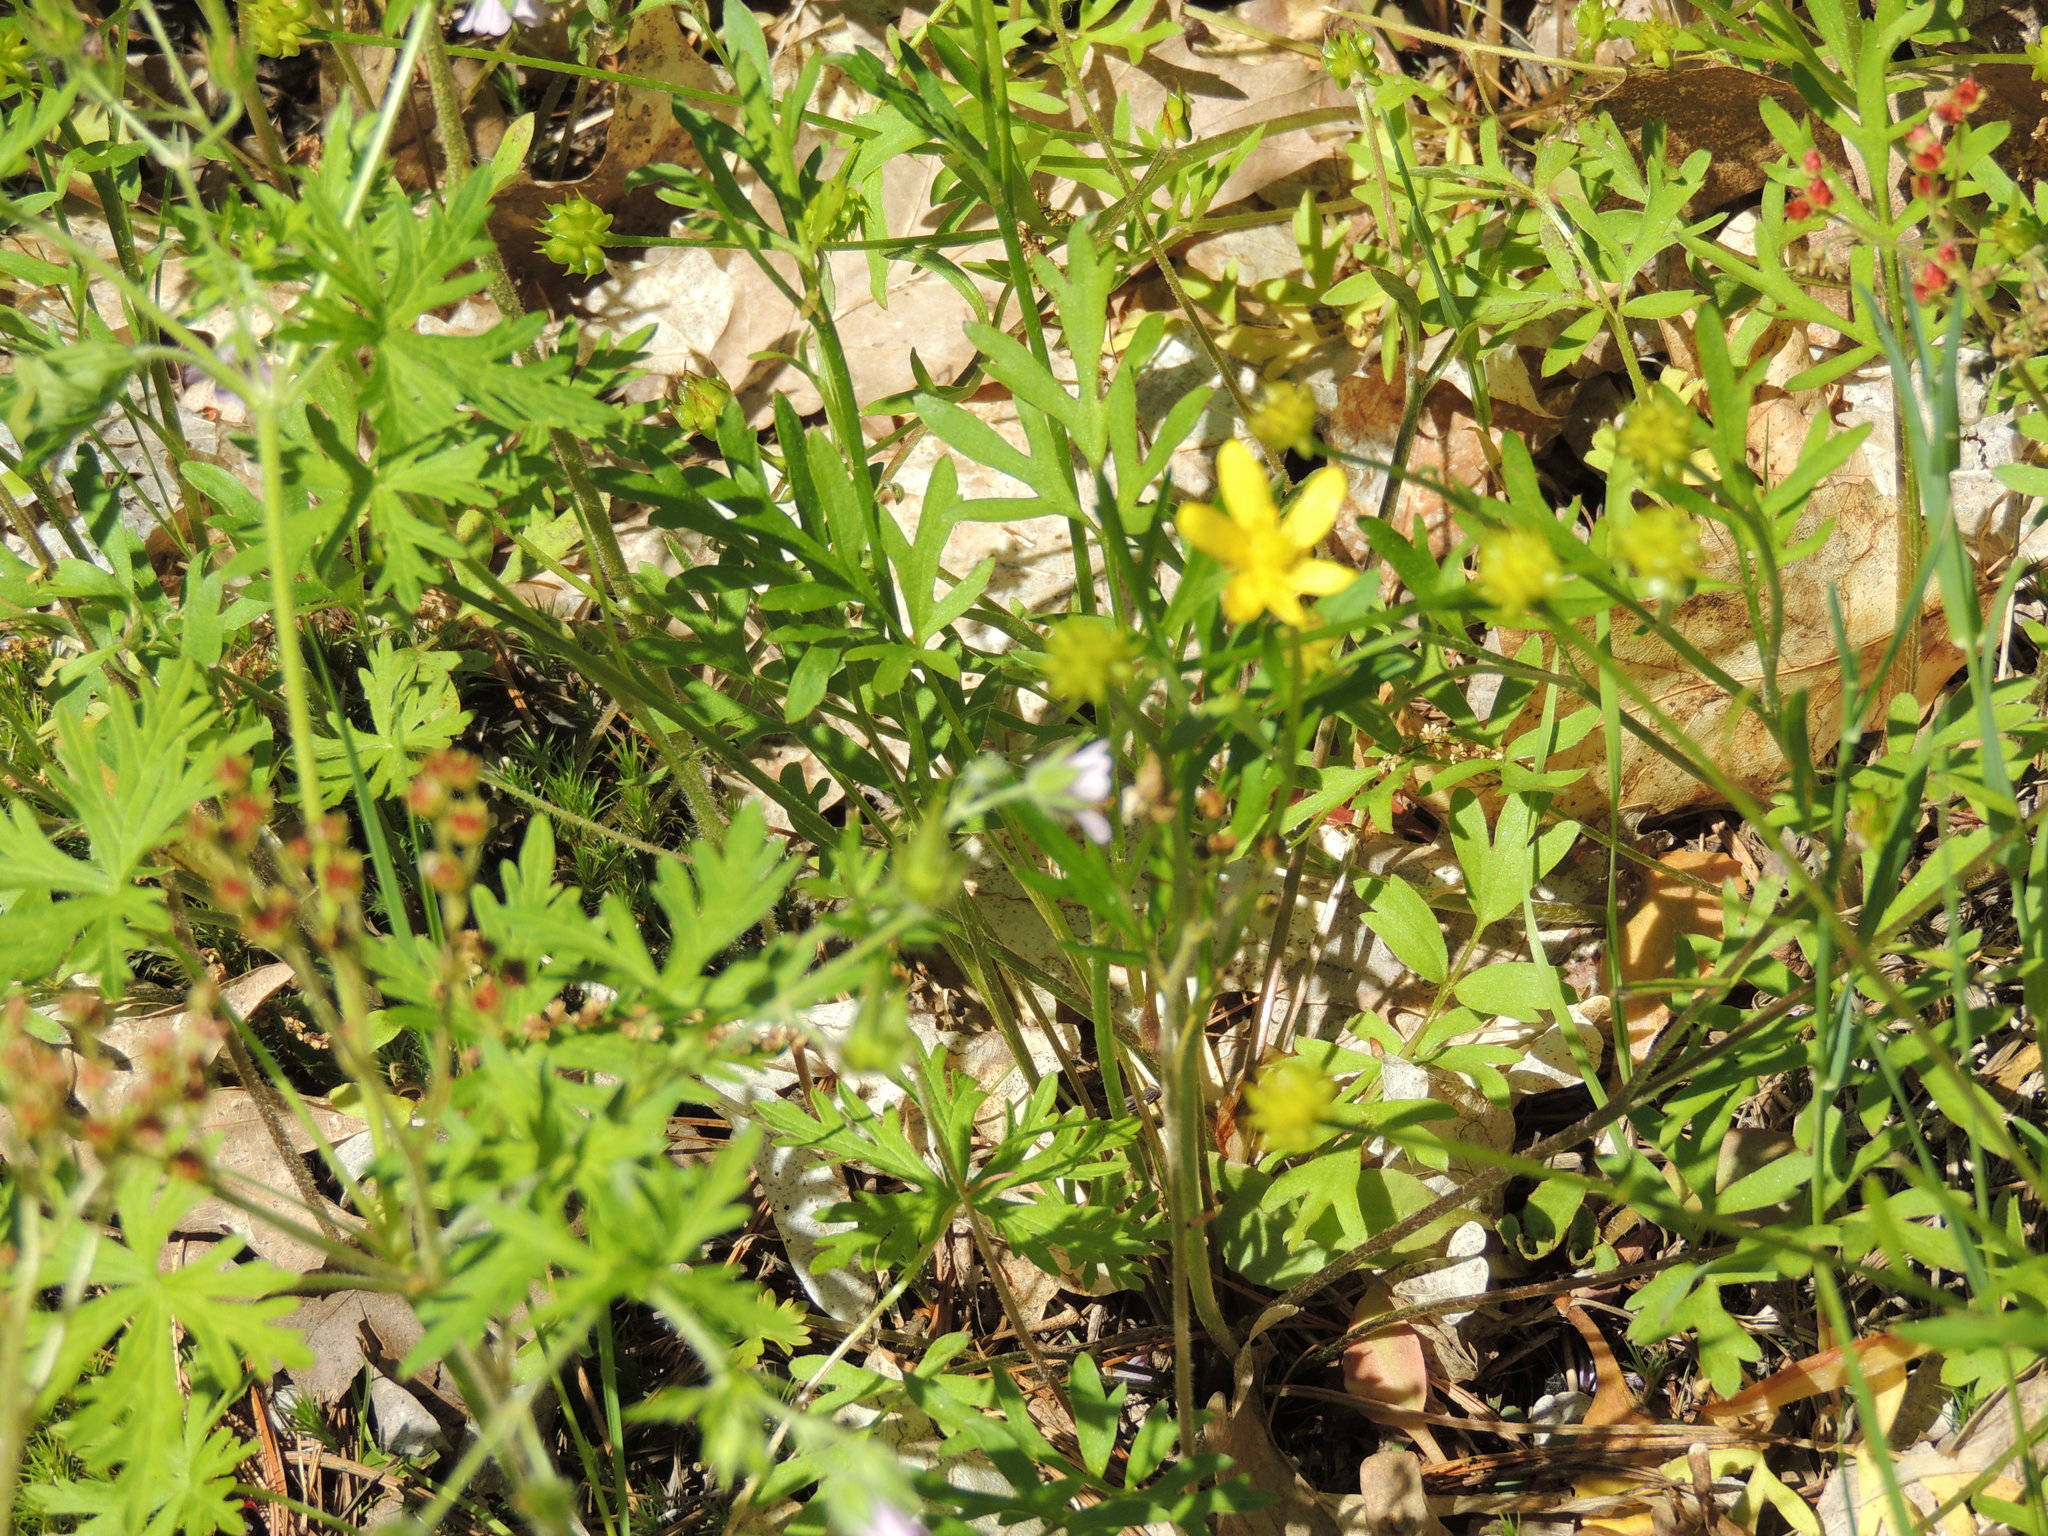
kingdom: Plantae
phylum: Tracheophyta
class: Magnoliopsida
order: Ranunculales
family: Ranunculaceae
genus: Ranunculus
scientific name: Ranunculus fascicularis
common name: Early buttercup
